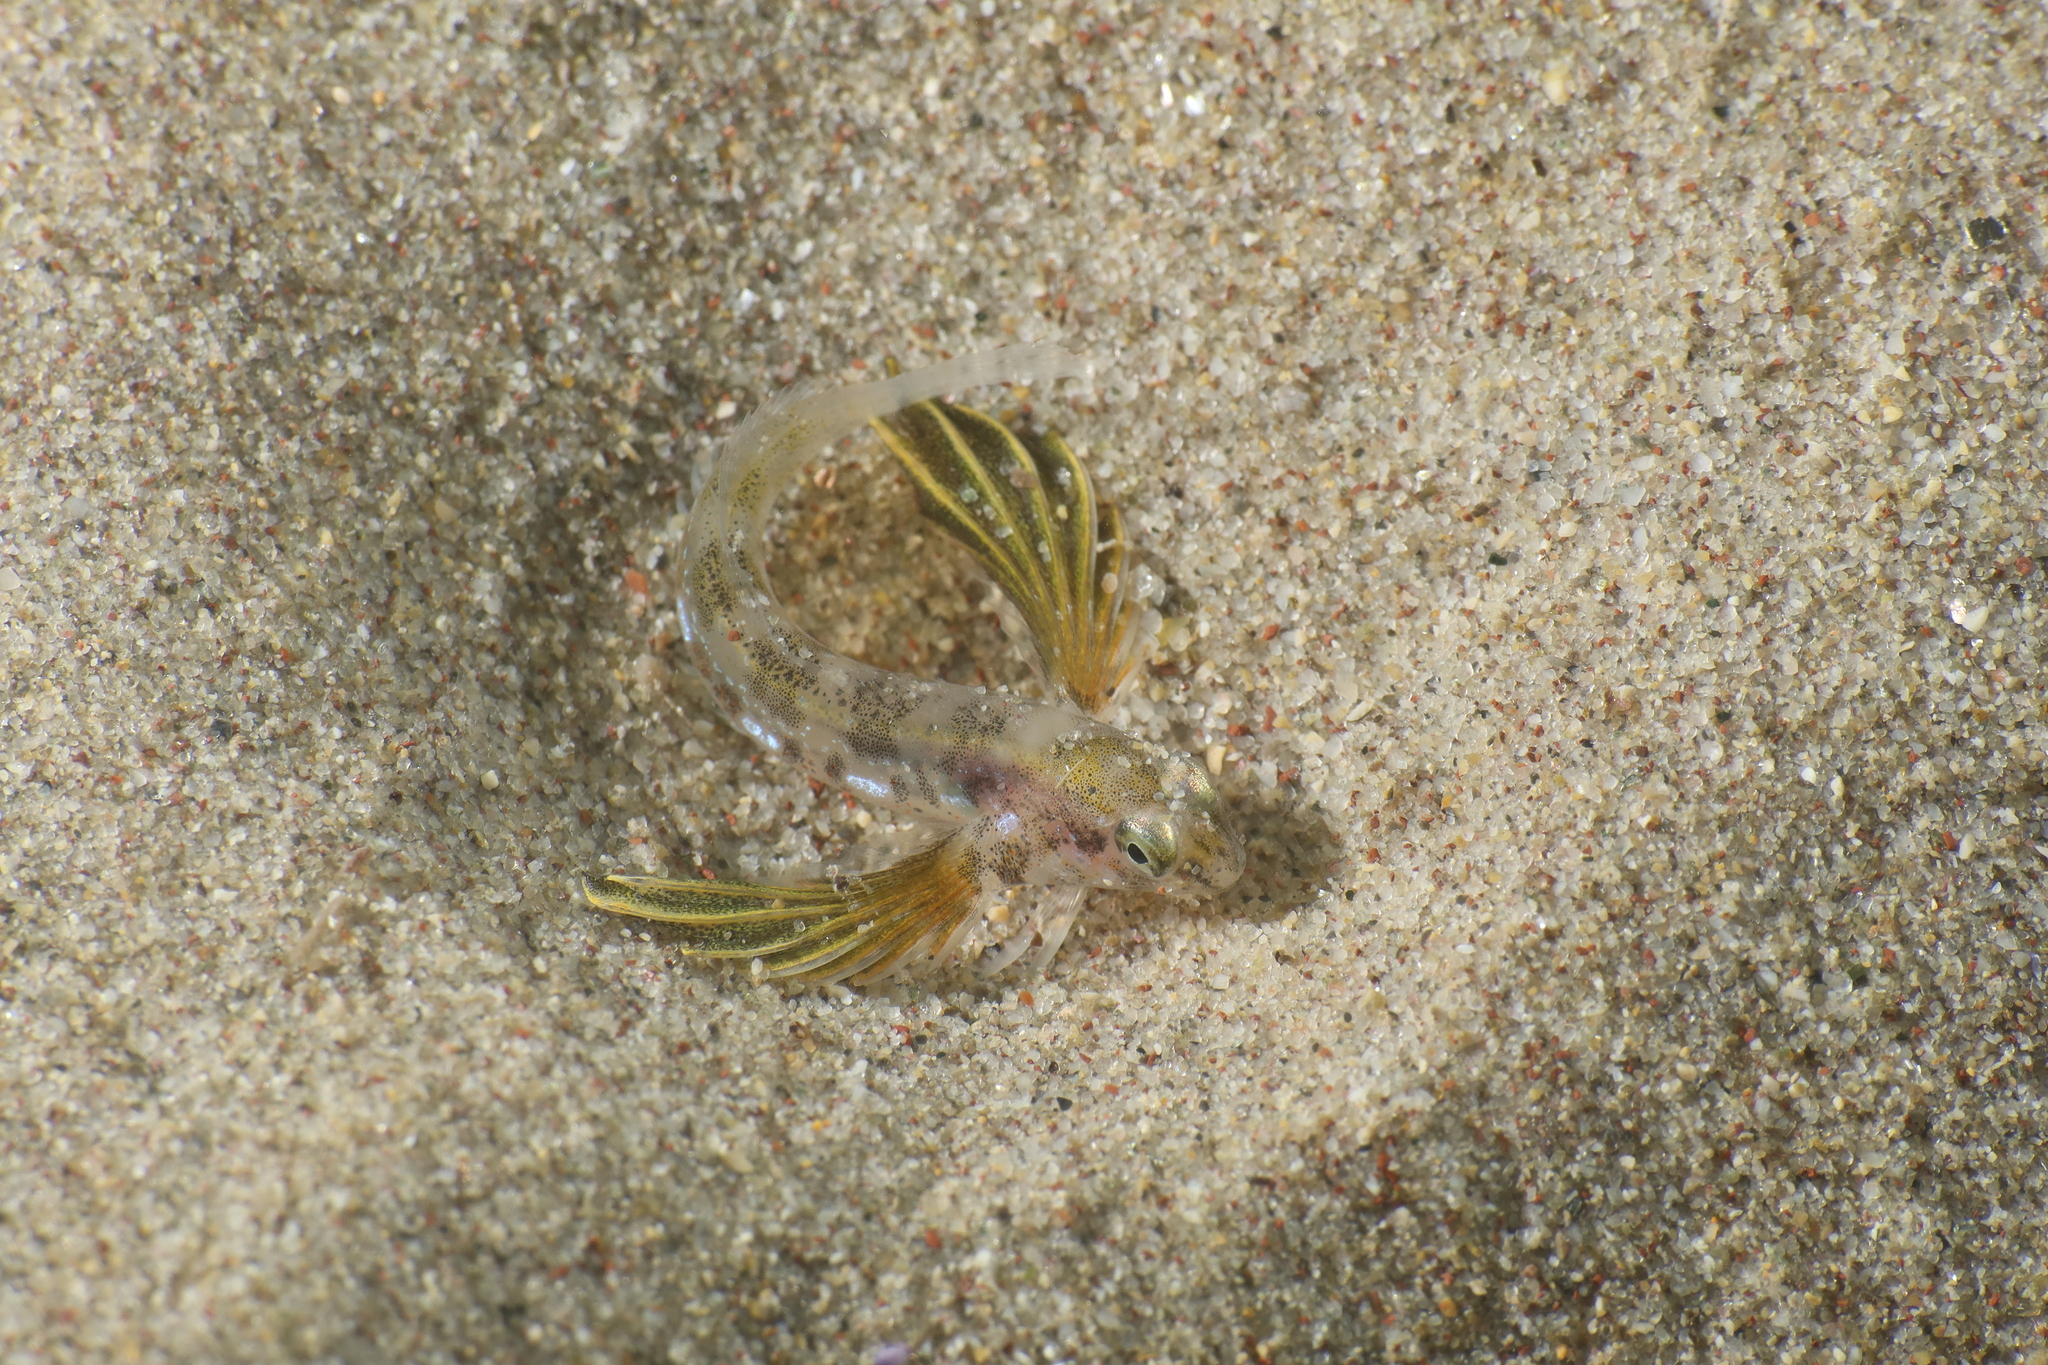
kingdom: Animalia
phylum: Chordata
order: Perciformes
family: Blenniidae
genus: Coryphoblennius
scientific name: Coryphoblennius galerita
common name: Montagu's blenny
